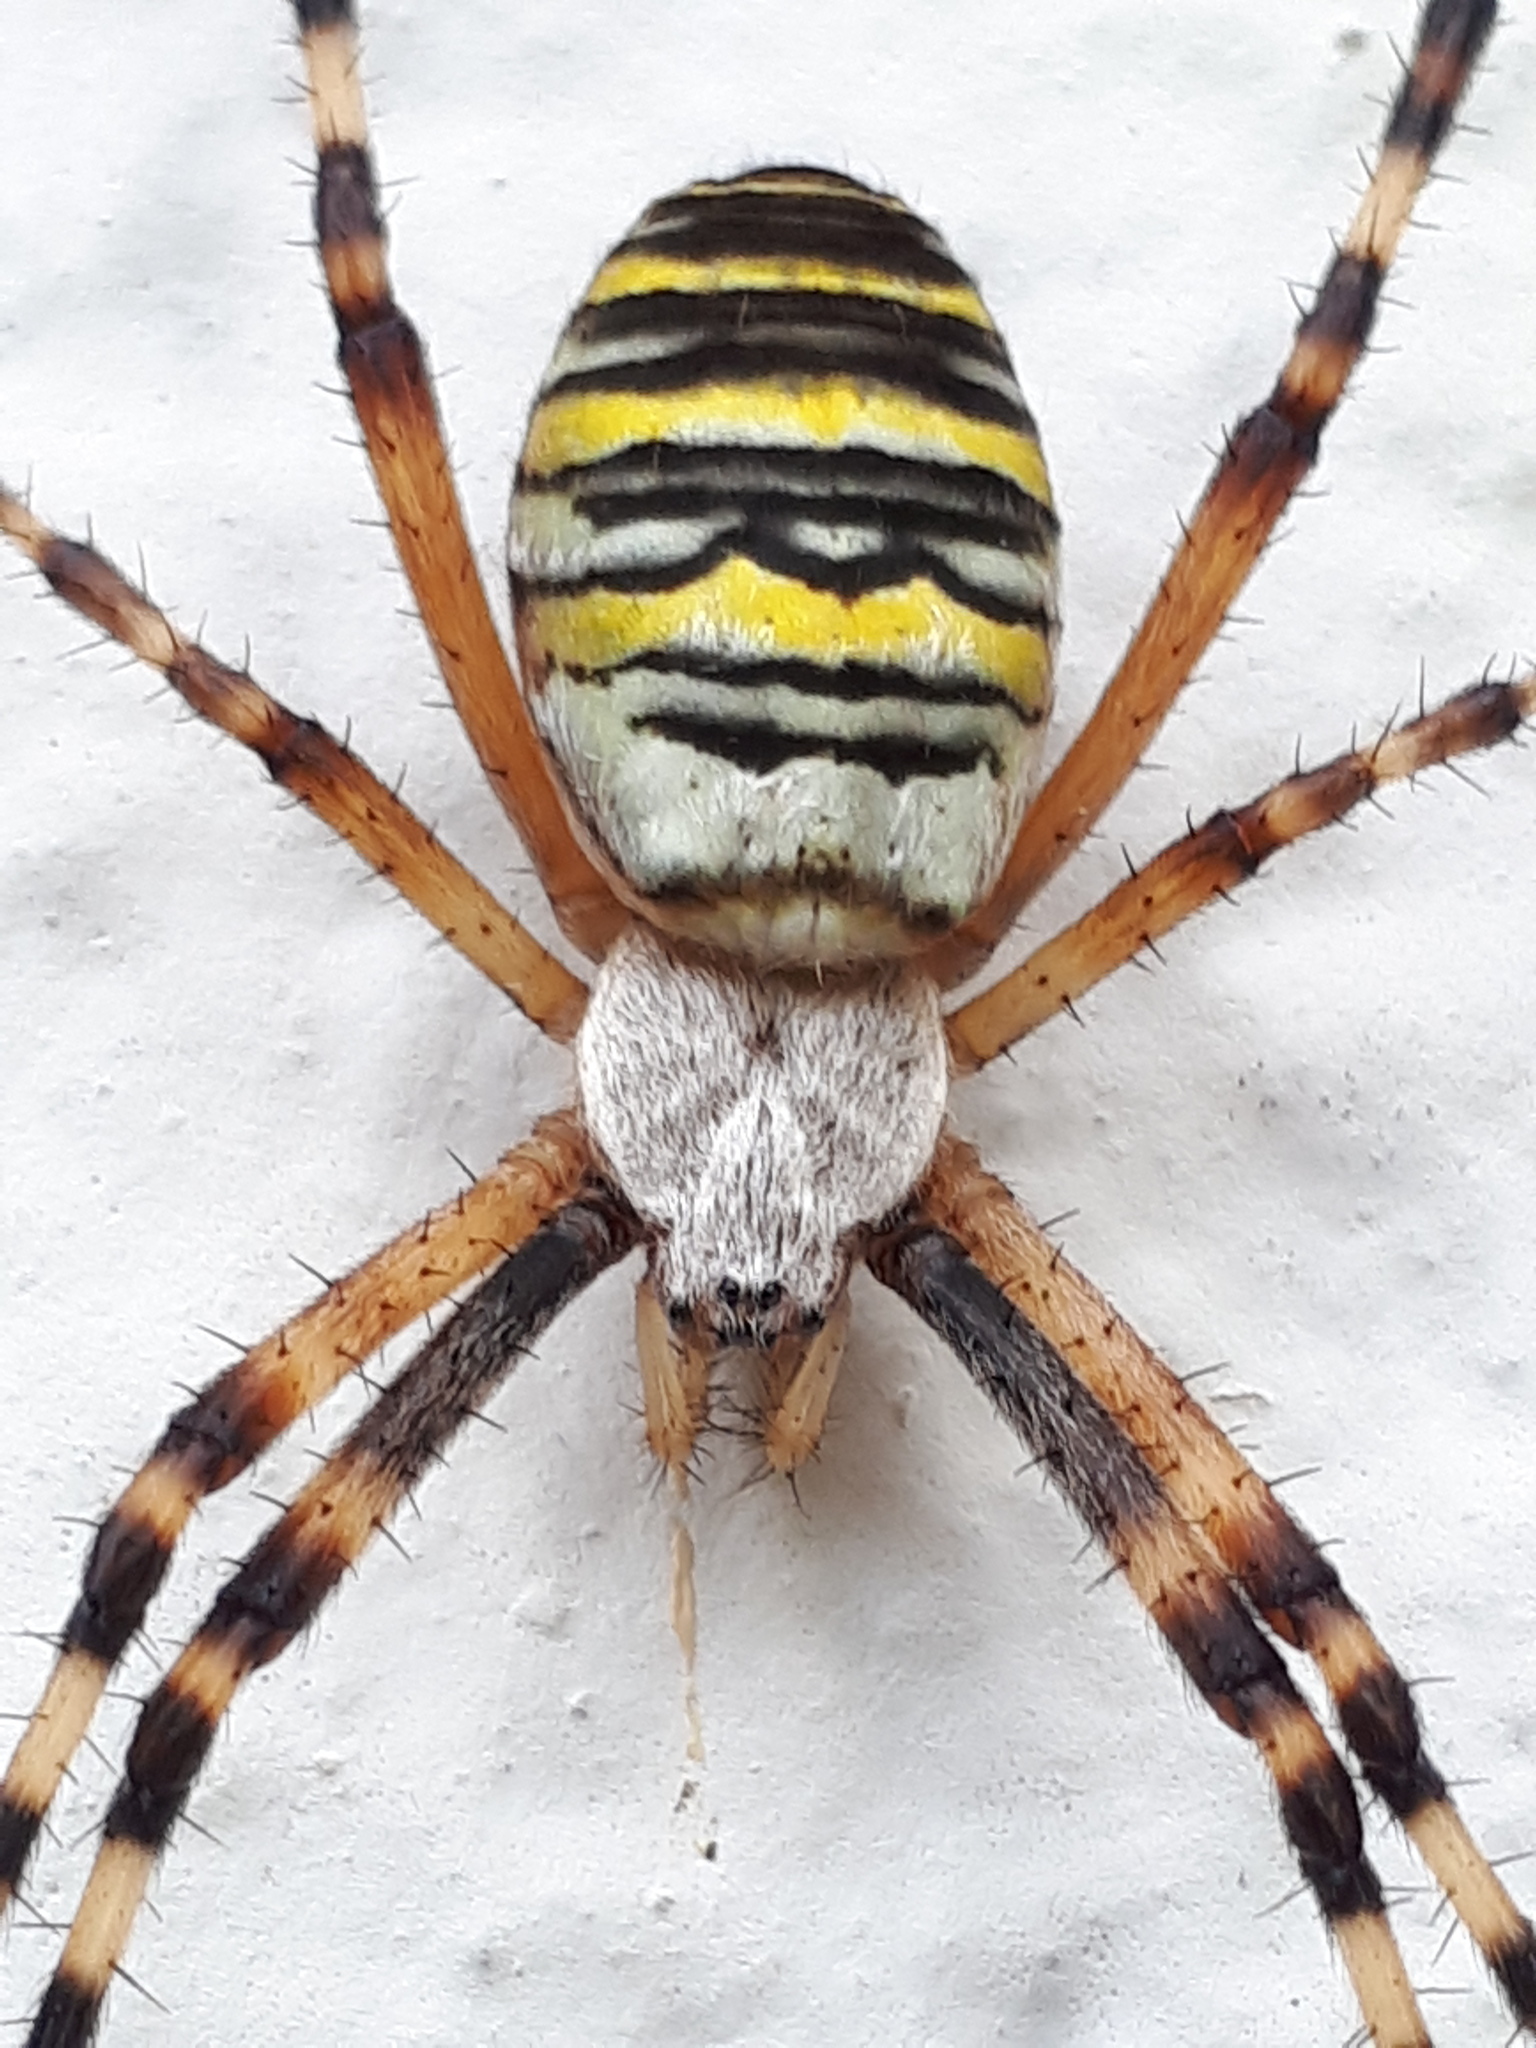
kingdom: Animalia
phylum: Arthropoda
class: Arachnida
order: Araneae
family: Araneidae
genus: Argiope
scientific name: Argiope bruennichi
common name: Wasp spider
